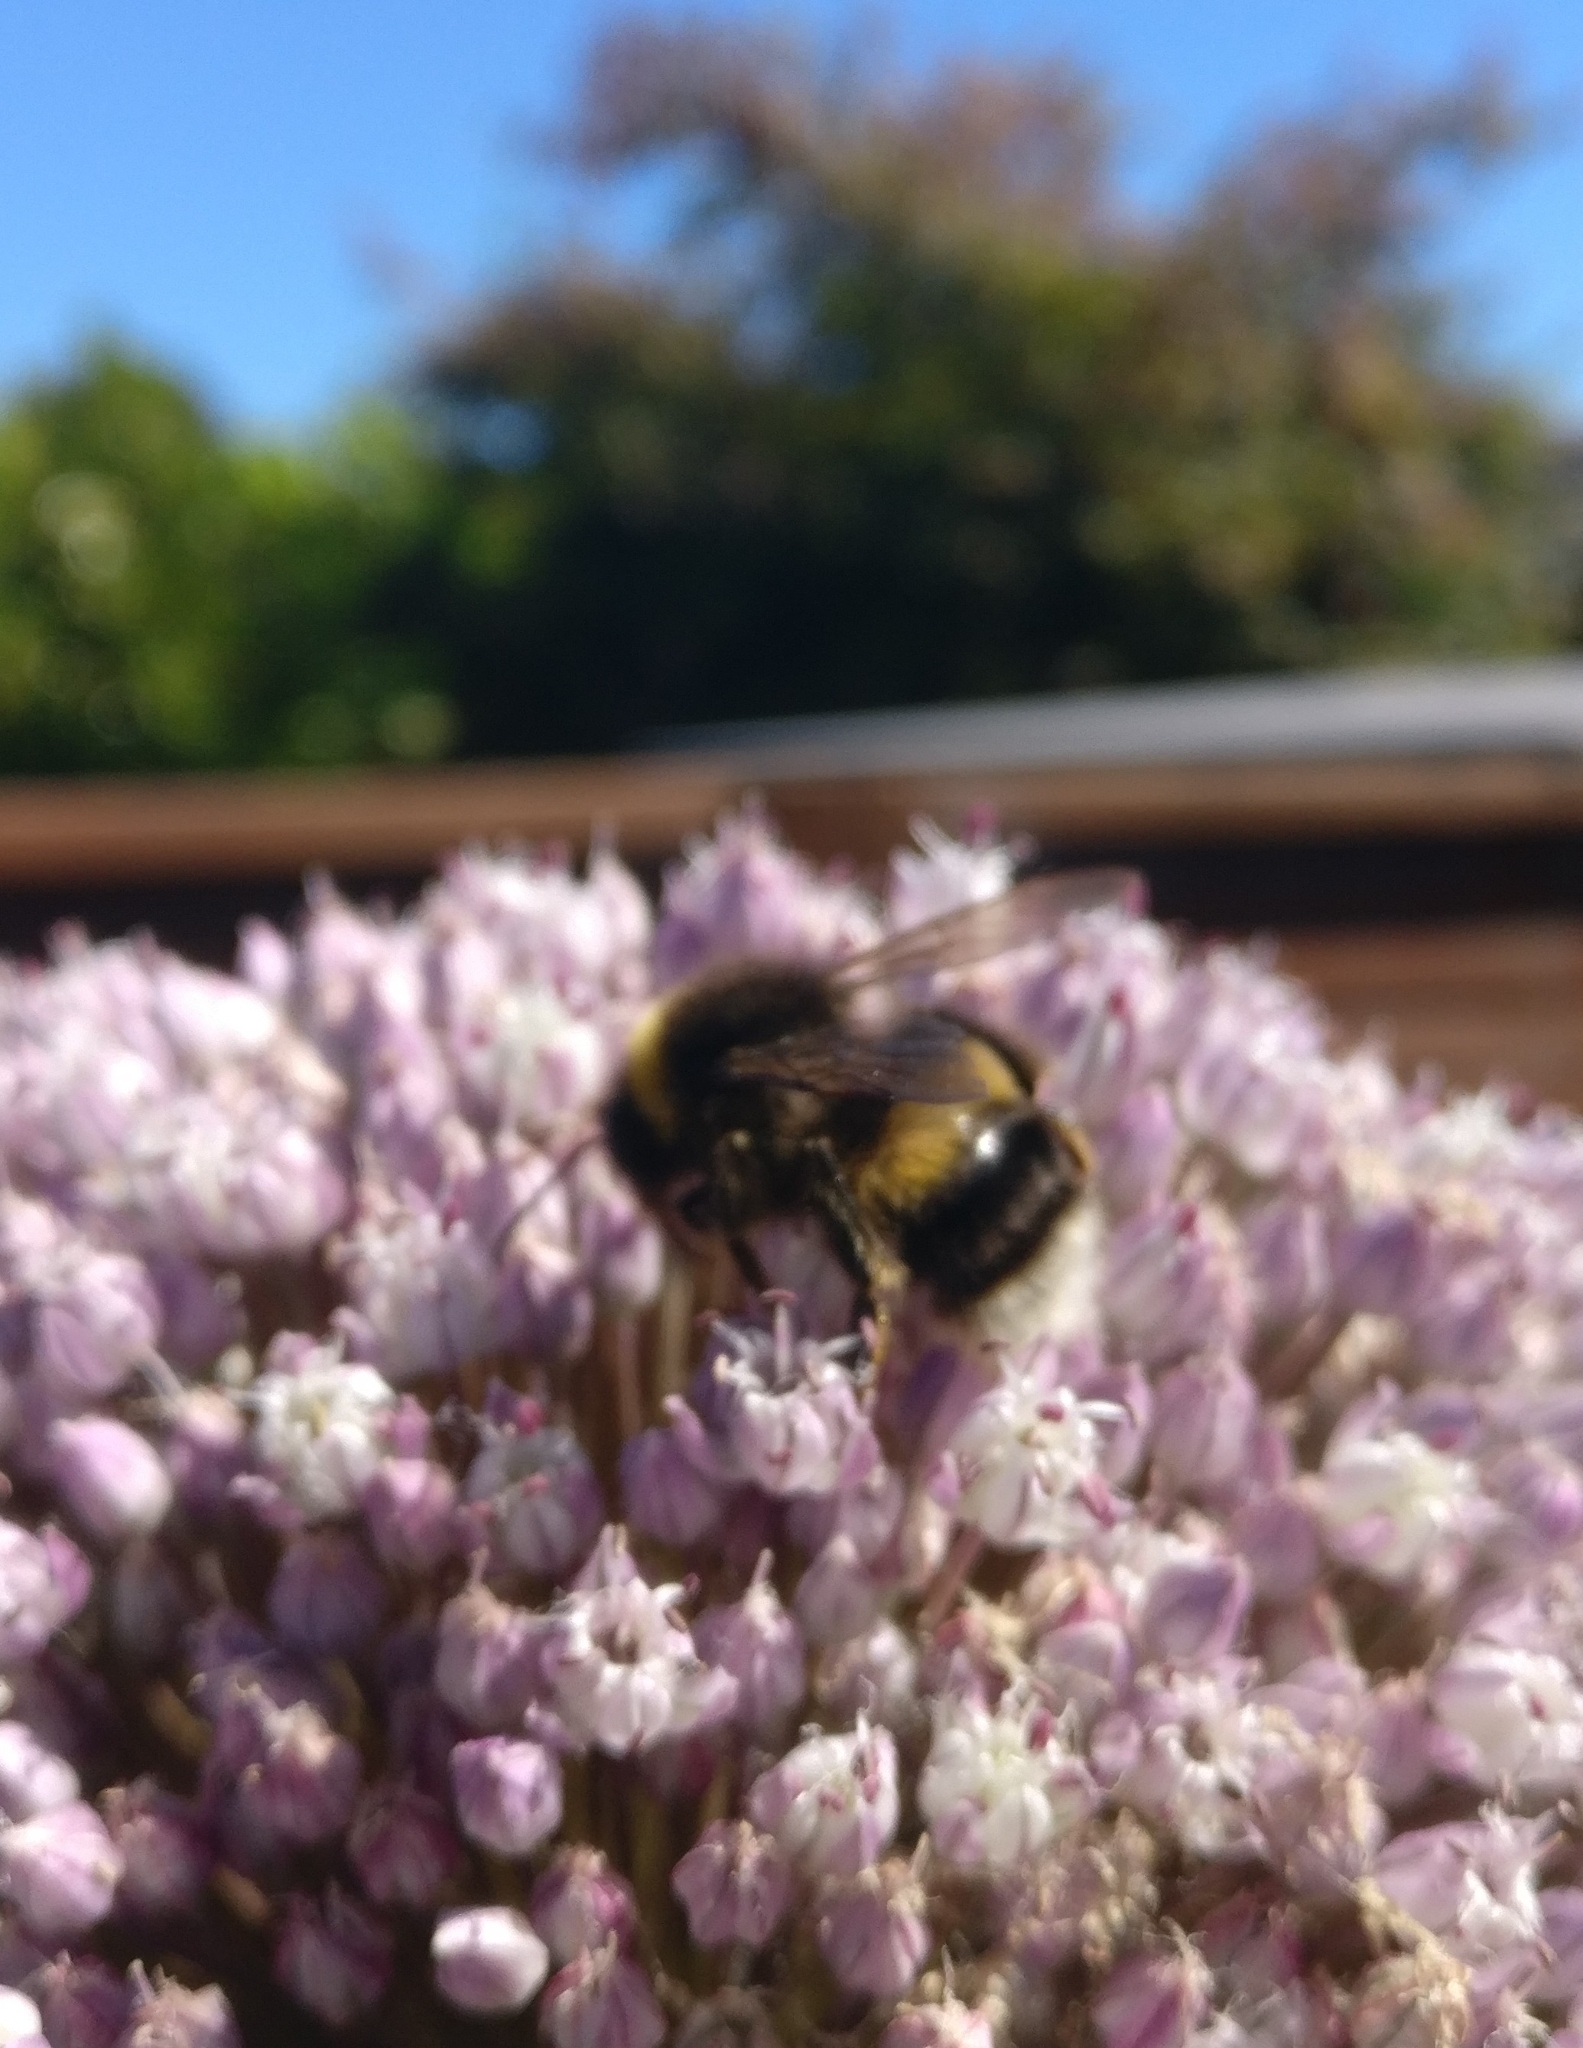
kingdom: Animalia
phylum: Arthropoda
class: Insecta
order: Hymenoptera
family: Apidae
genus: Bombus
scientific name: Bombus terrestris
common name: Buff-tailed bumblebee
